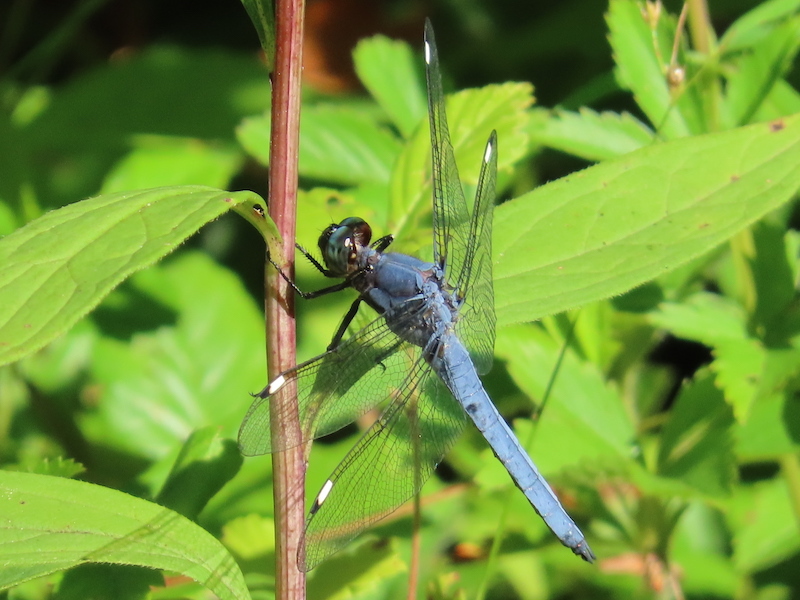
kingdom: Animalia
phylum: Arthropoda
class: Insecta
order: Odonata
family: Libellulidae
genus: Libellula
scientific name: Libellula cyanea
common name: Spangled skimmer
